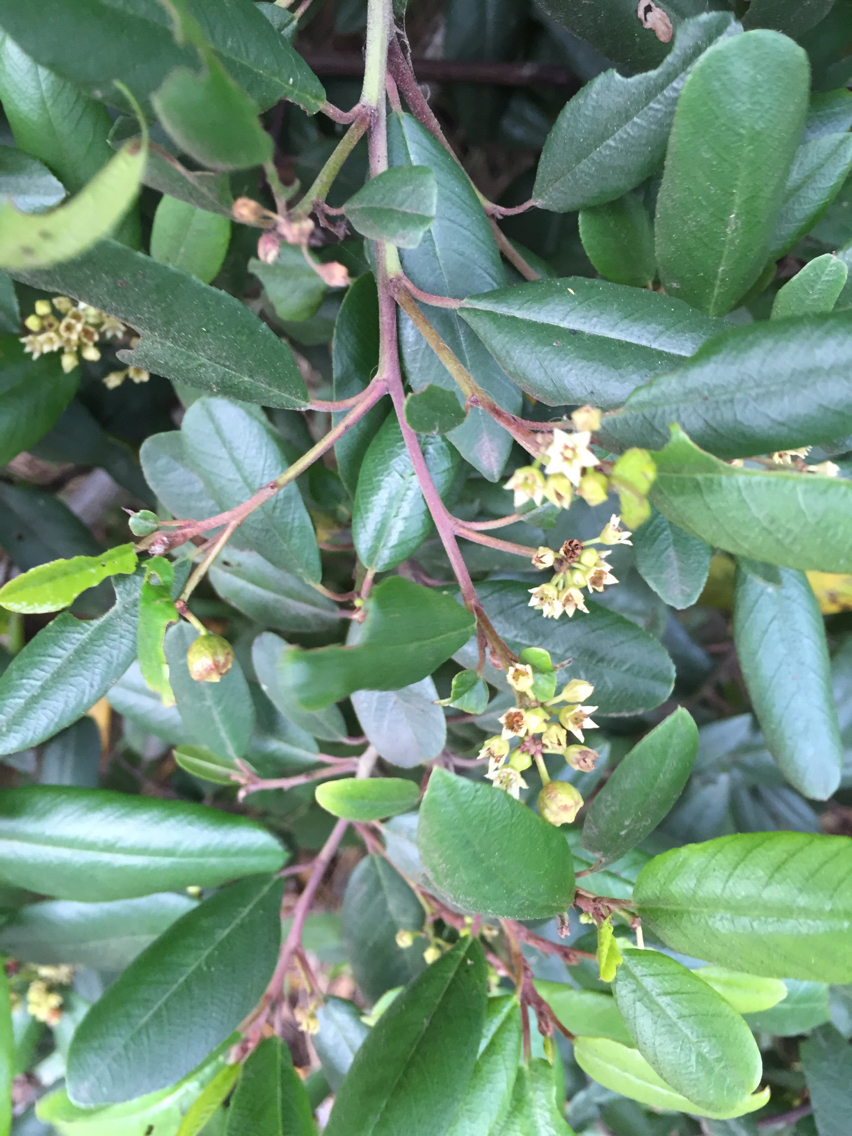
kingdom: Plantae
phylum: Tracheophyta
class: Magnoliopsida
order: Rosales
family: Rhamnaceae
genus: Frangula
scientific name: Frangula californica
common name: California buckthorn
